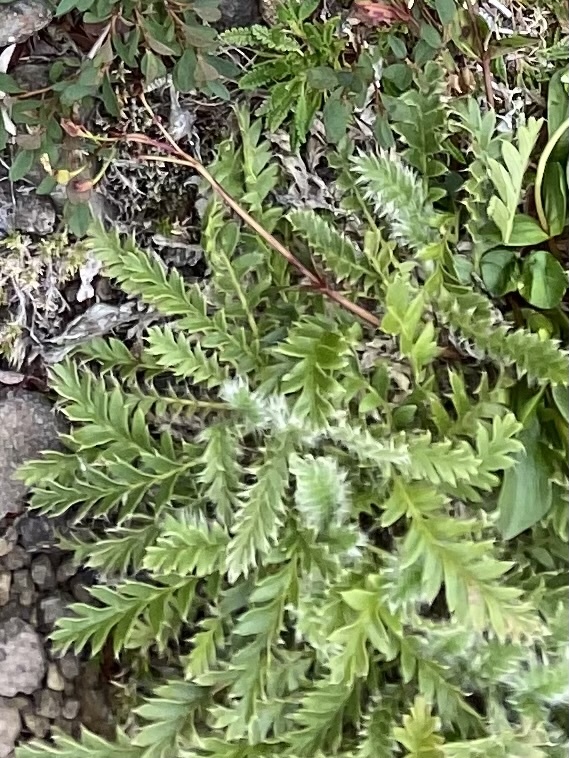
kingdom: Plantae
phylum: Tracheophyta
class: Magnoliopsida
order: Rosales
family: Rosaceae
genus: Geum
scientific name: Geum glaciale
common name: Glacier avens
